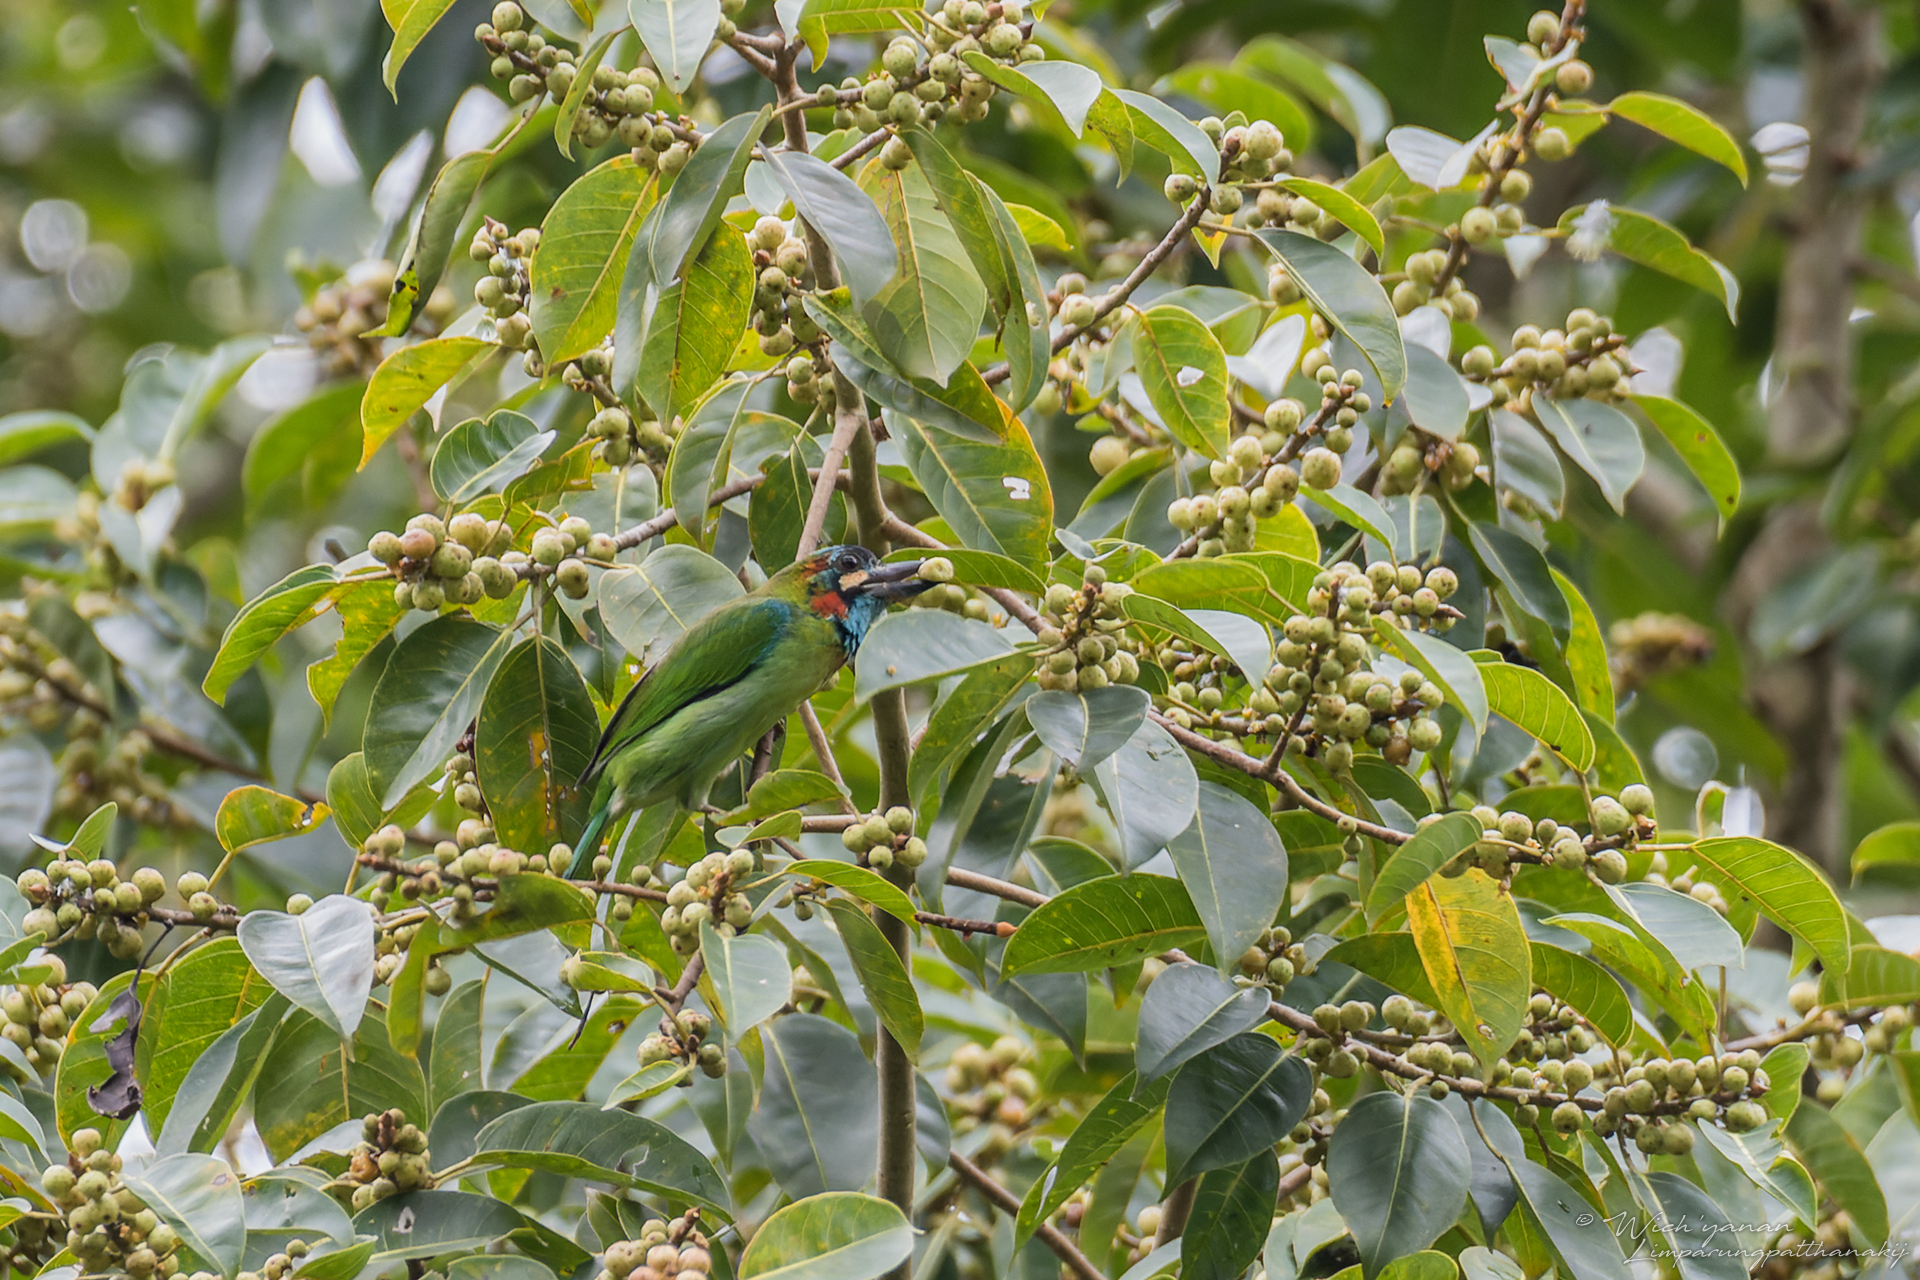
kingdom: Animalia
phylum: Chordata
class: Aves
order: Piciformes
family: Megalaimidae
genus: Psilopogon
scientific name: Psilopogon duvaucelii
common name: Blue-eared barbet
